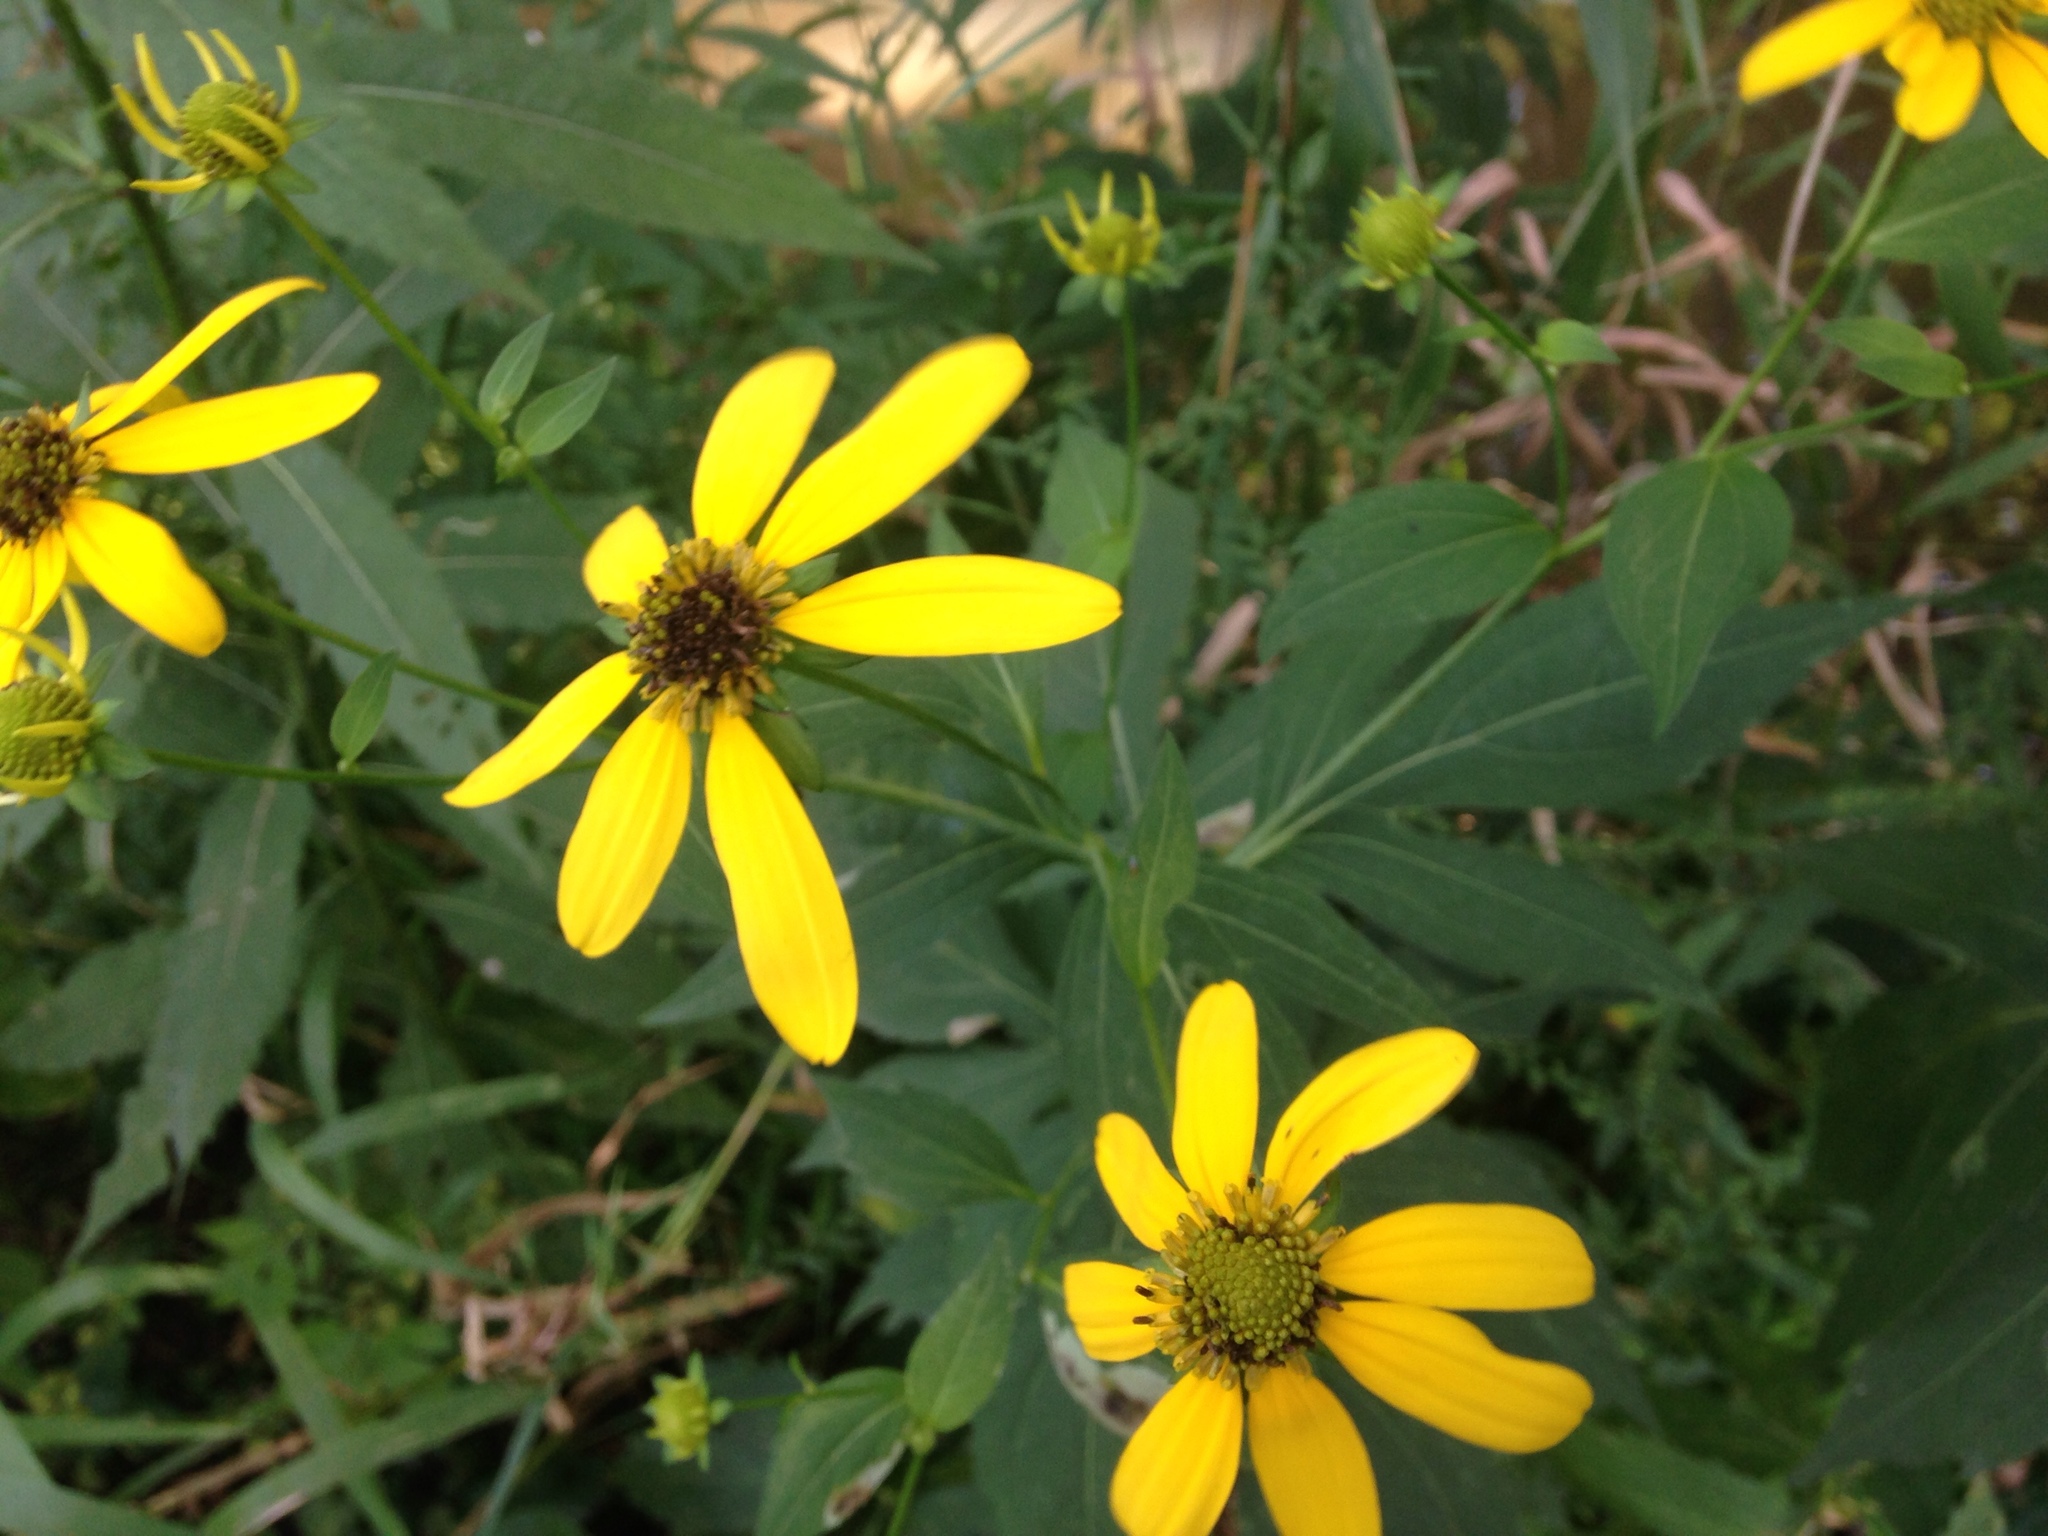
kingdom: Plantae
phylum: Tracheophyta
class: Magnoliopsida
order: Asterales
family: Asteraceae
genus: Rudbeckia
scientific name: Rudbeckia laciniata
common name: Coneflower
